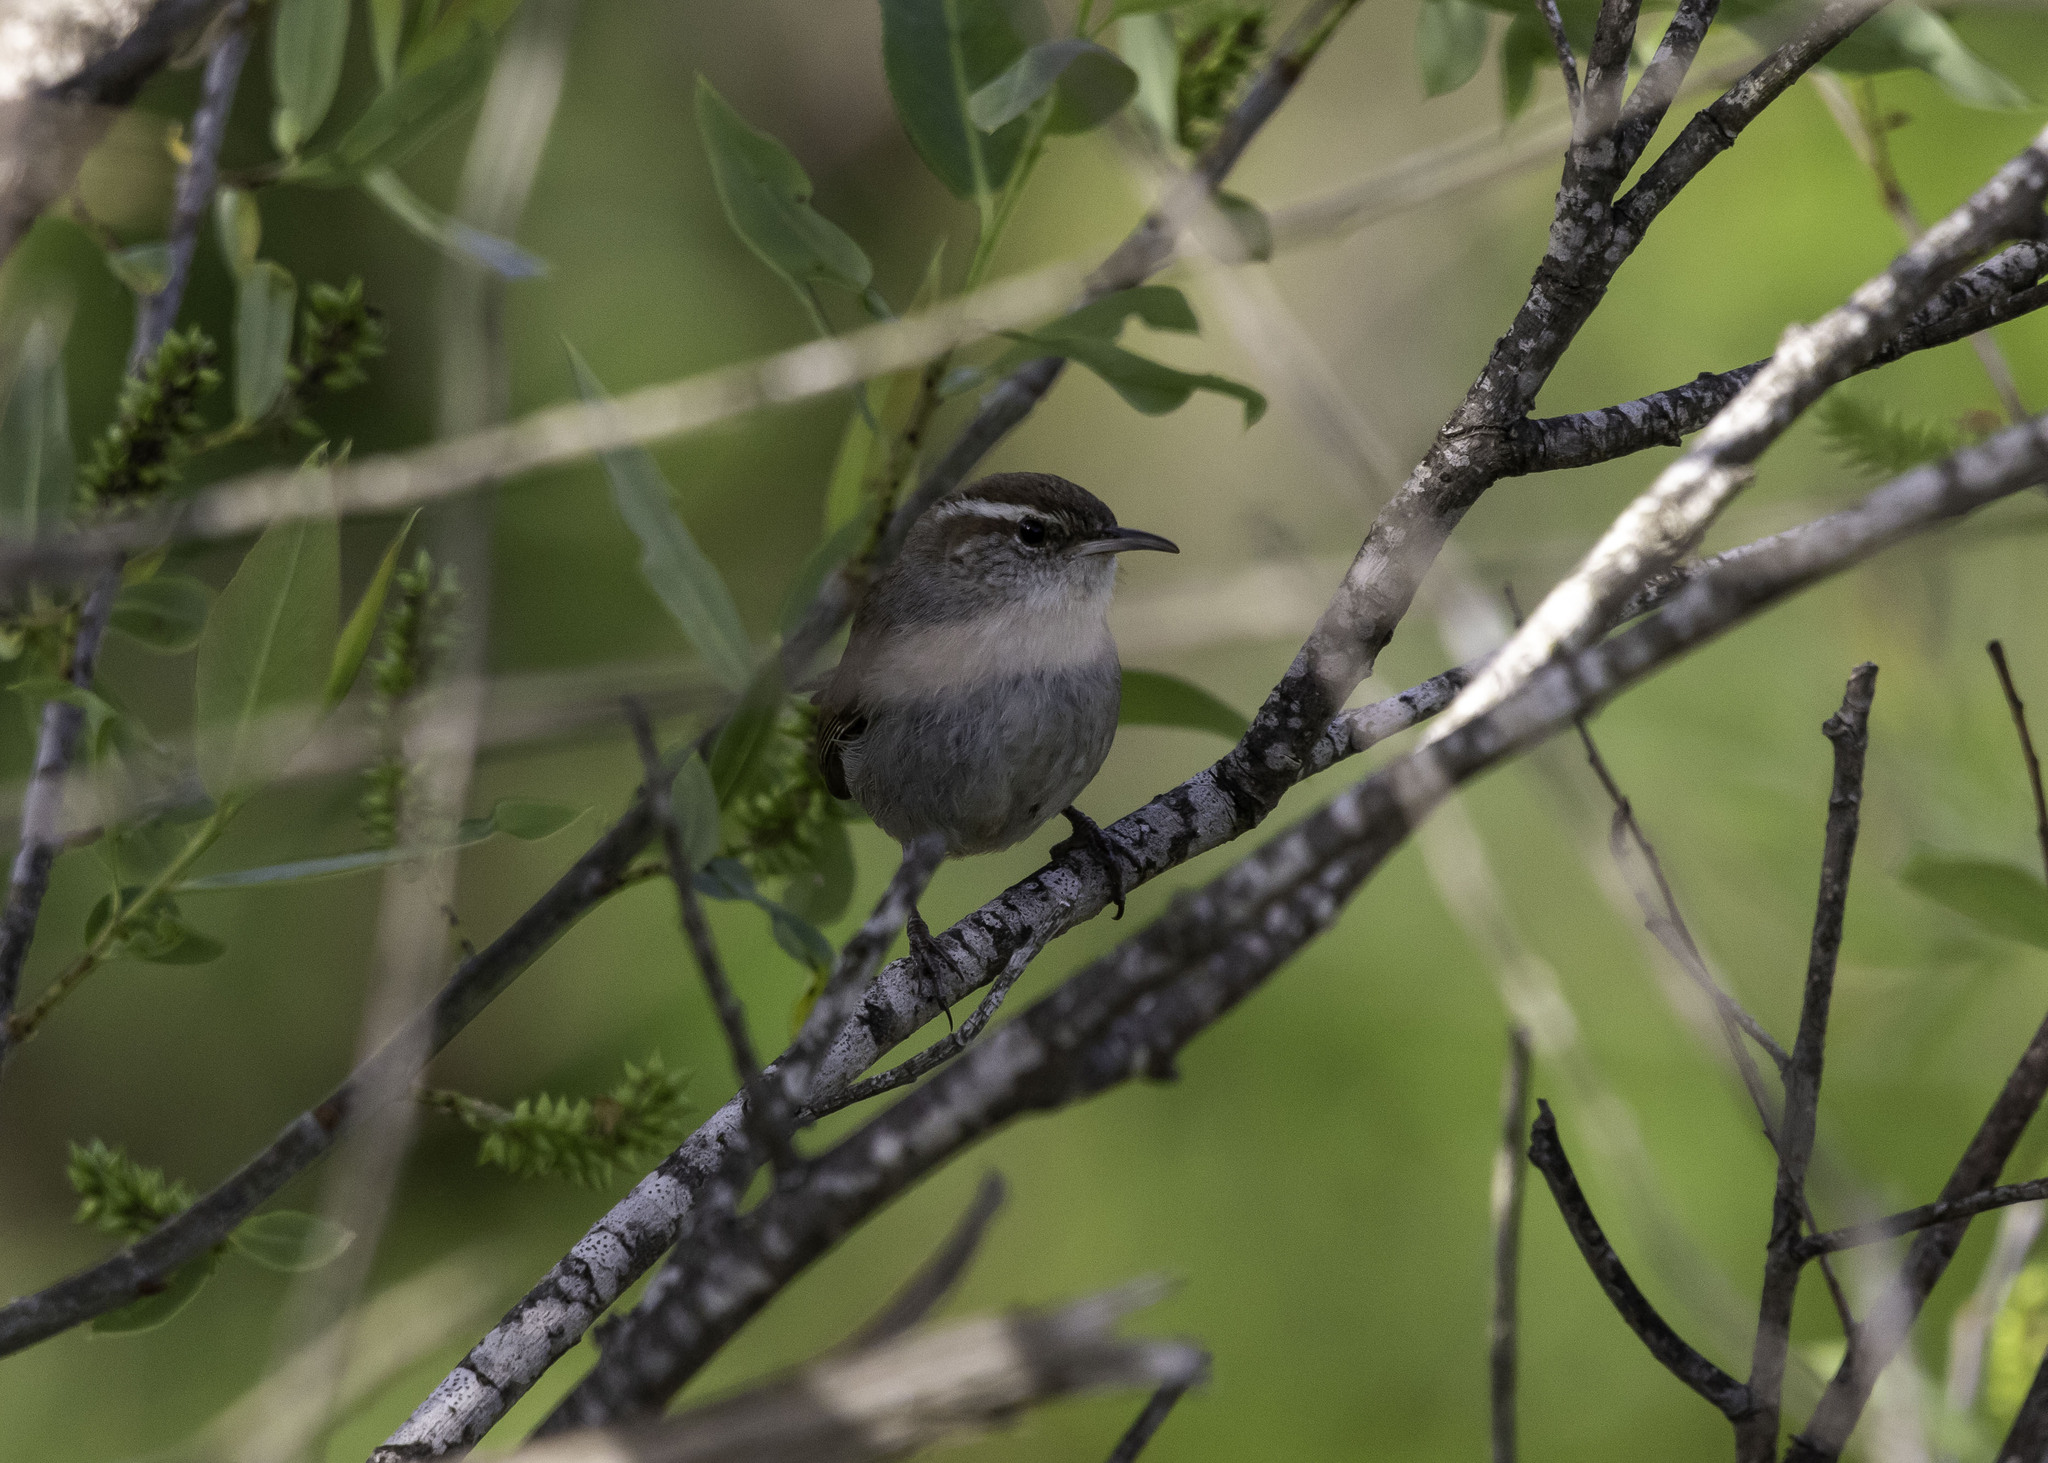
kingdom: Animalia
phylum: Chordata
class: Aves
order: Passeriformes
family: Troglodytidae
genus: Thryomanes
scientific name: Thryomanes bewickii
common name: Bewick's wren
